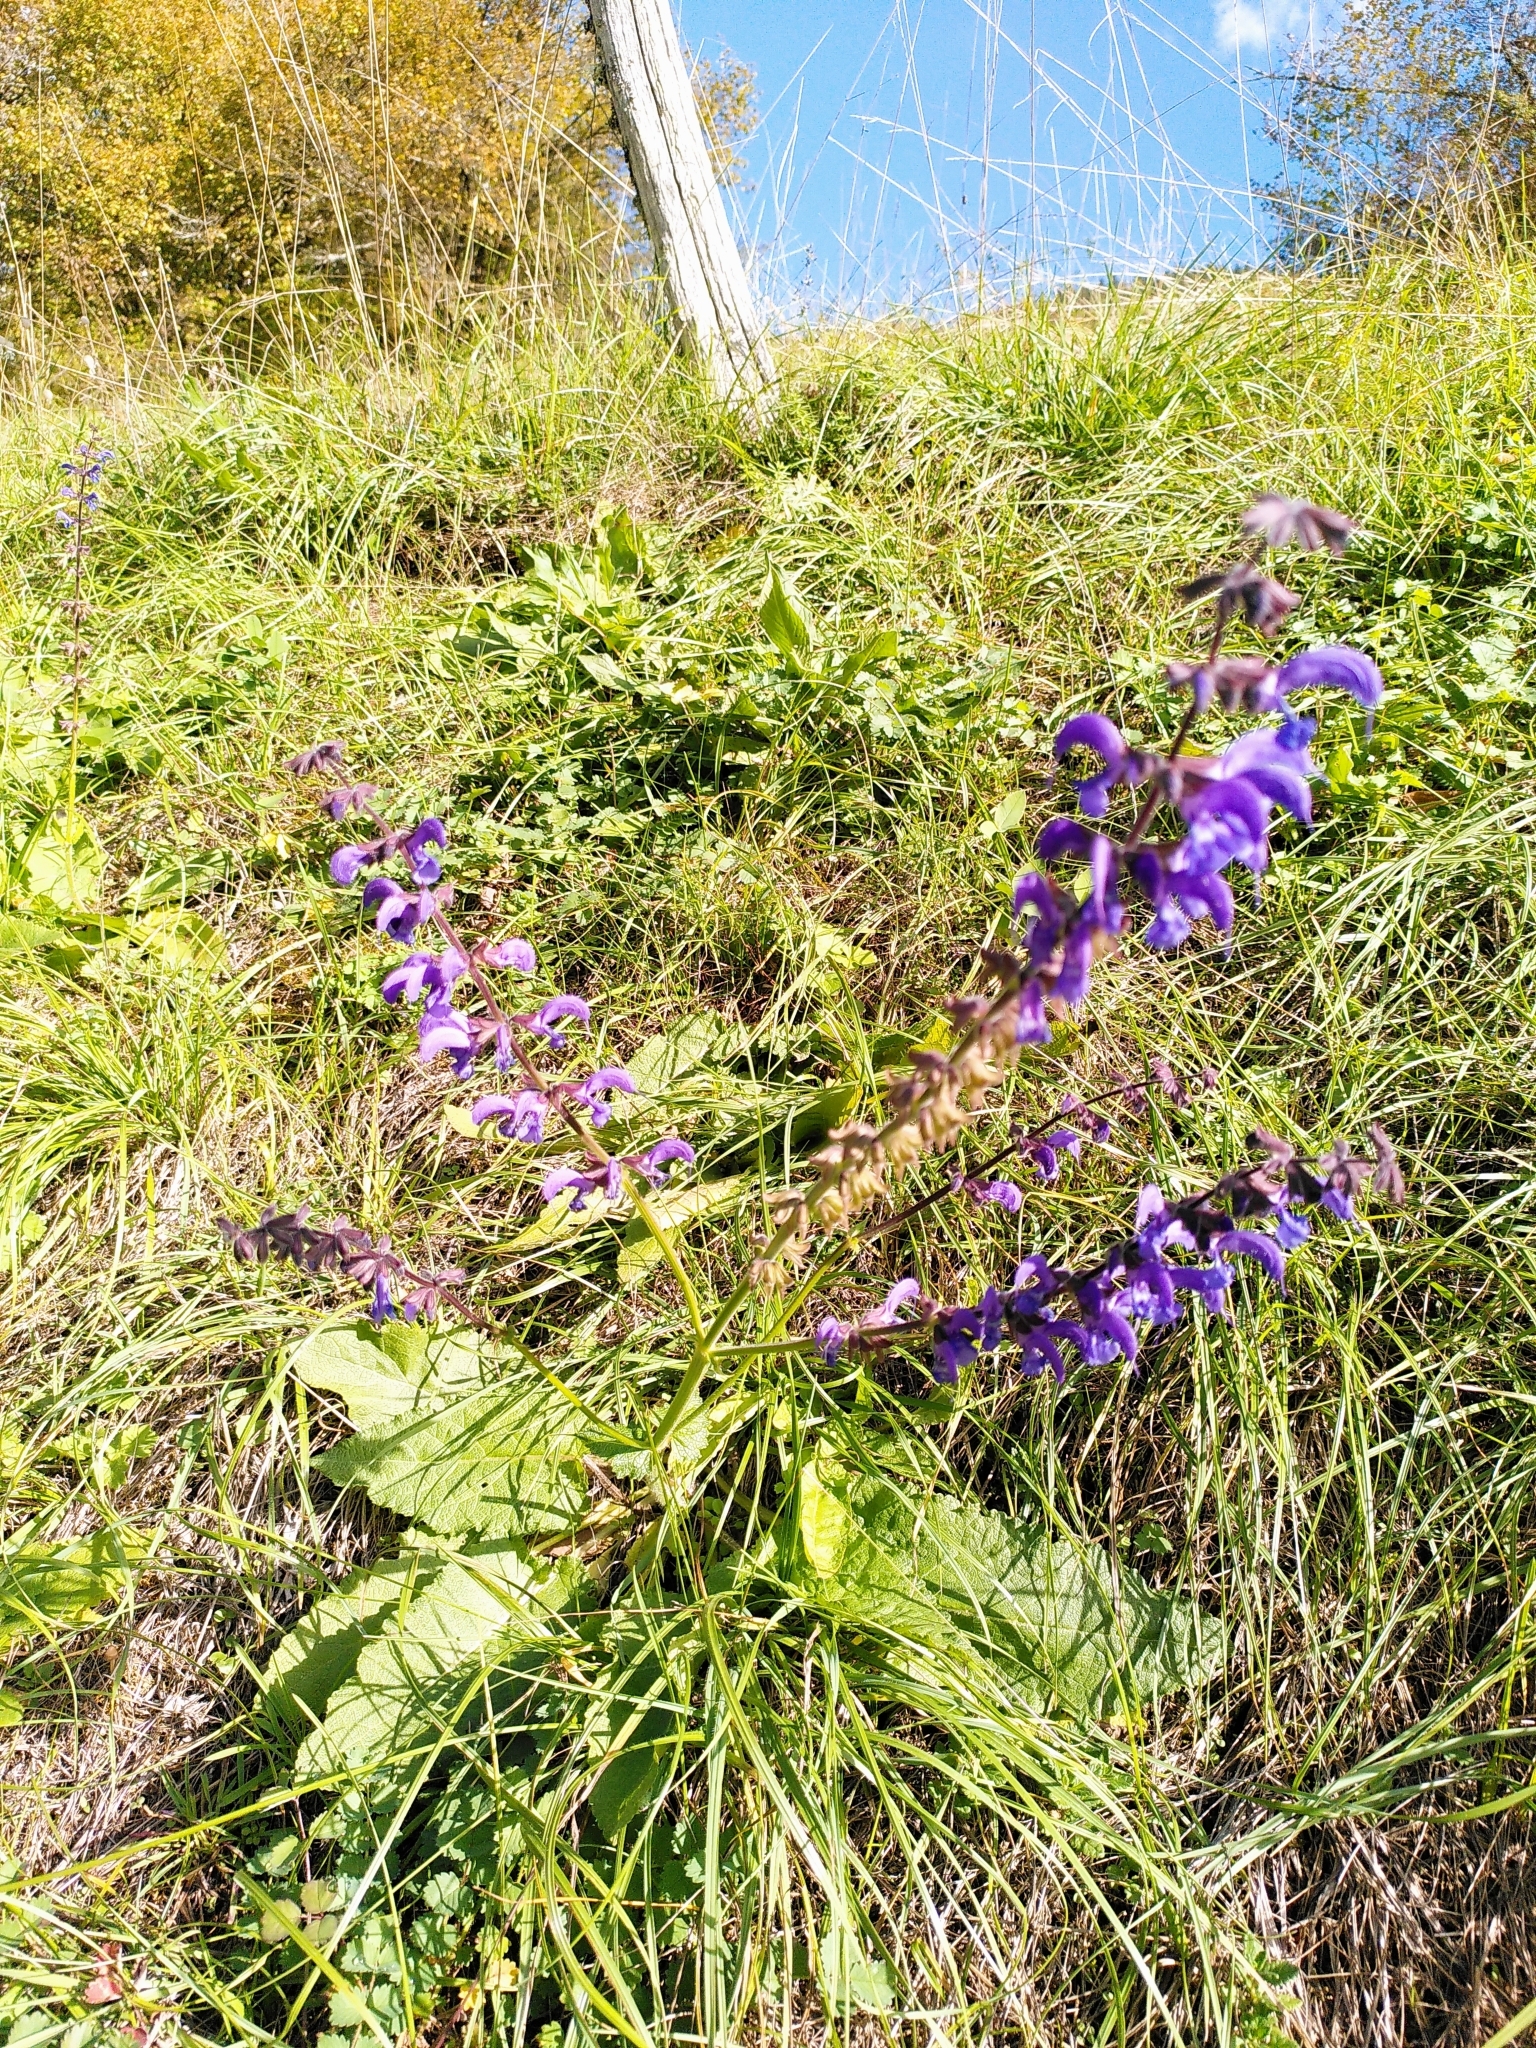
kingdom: Plantae
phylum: Tracheophyta
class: Magnoliopsida
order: Lamiales
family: Lamiaceae
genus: Salvia
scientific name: Salvia pratensis
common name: Meadow sage
